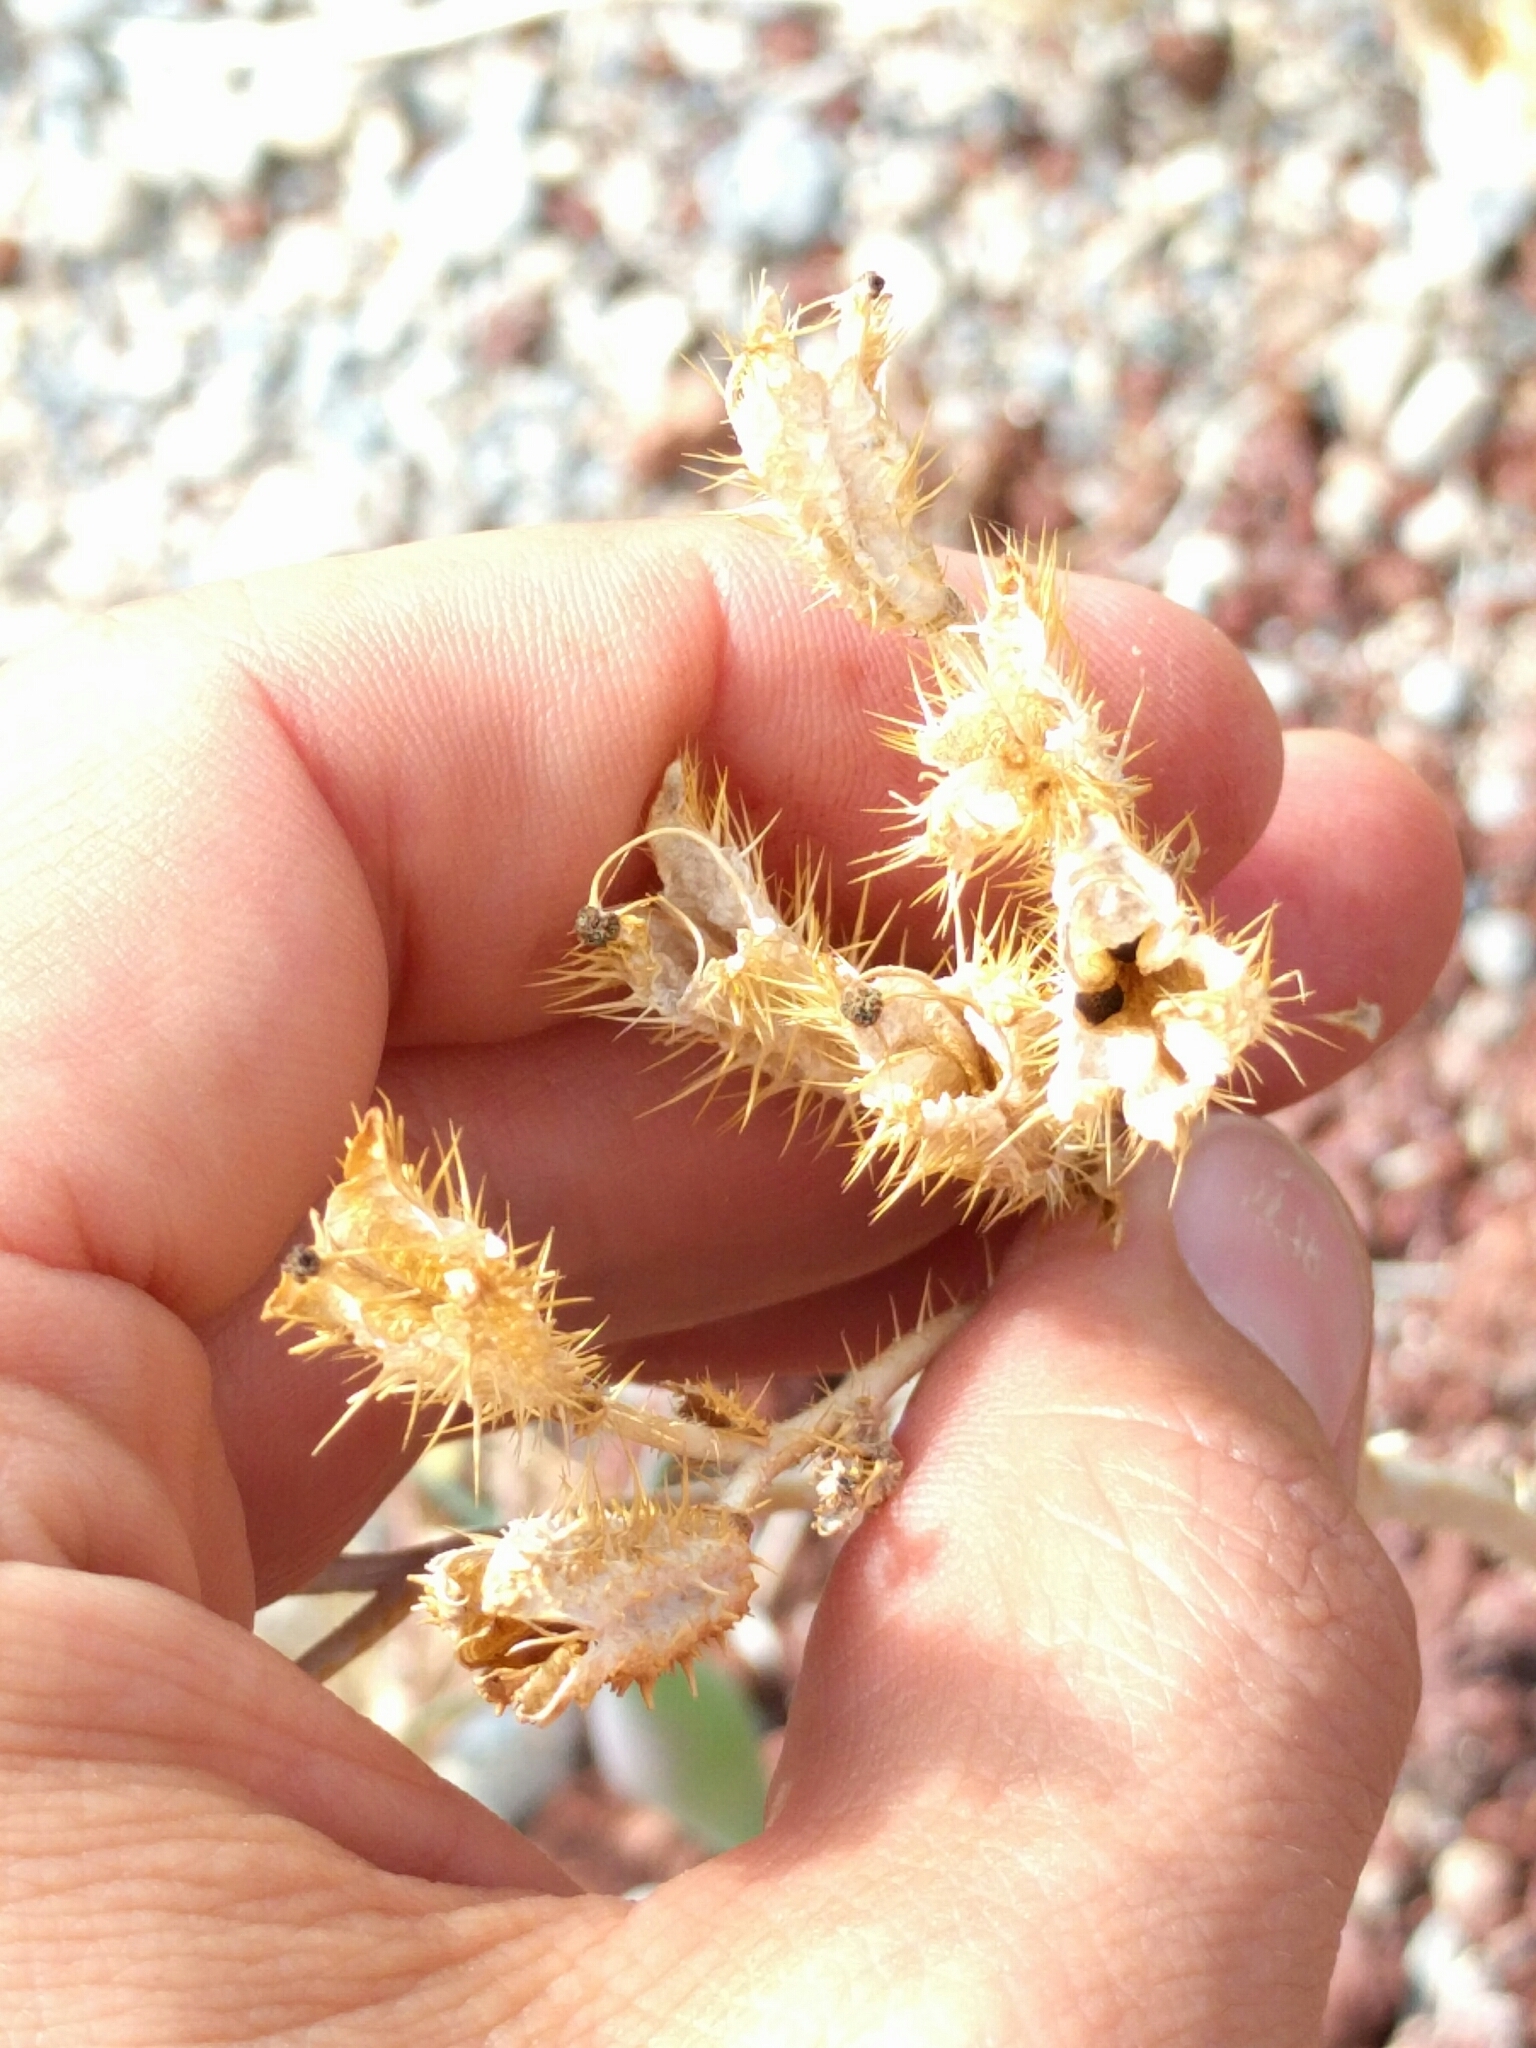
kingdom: Plantae
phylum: Tracheophyta
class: Magnoliopsida
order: Ranunculales
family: Papaveraceae
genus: Argemone
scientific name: Argemone corymbosa
